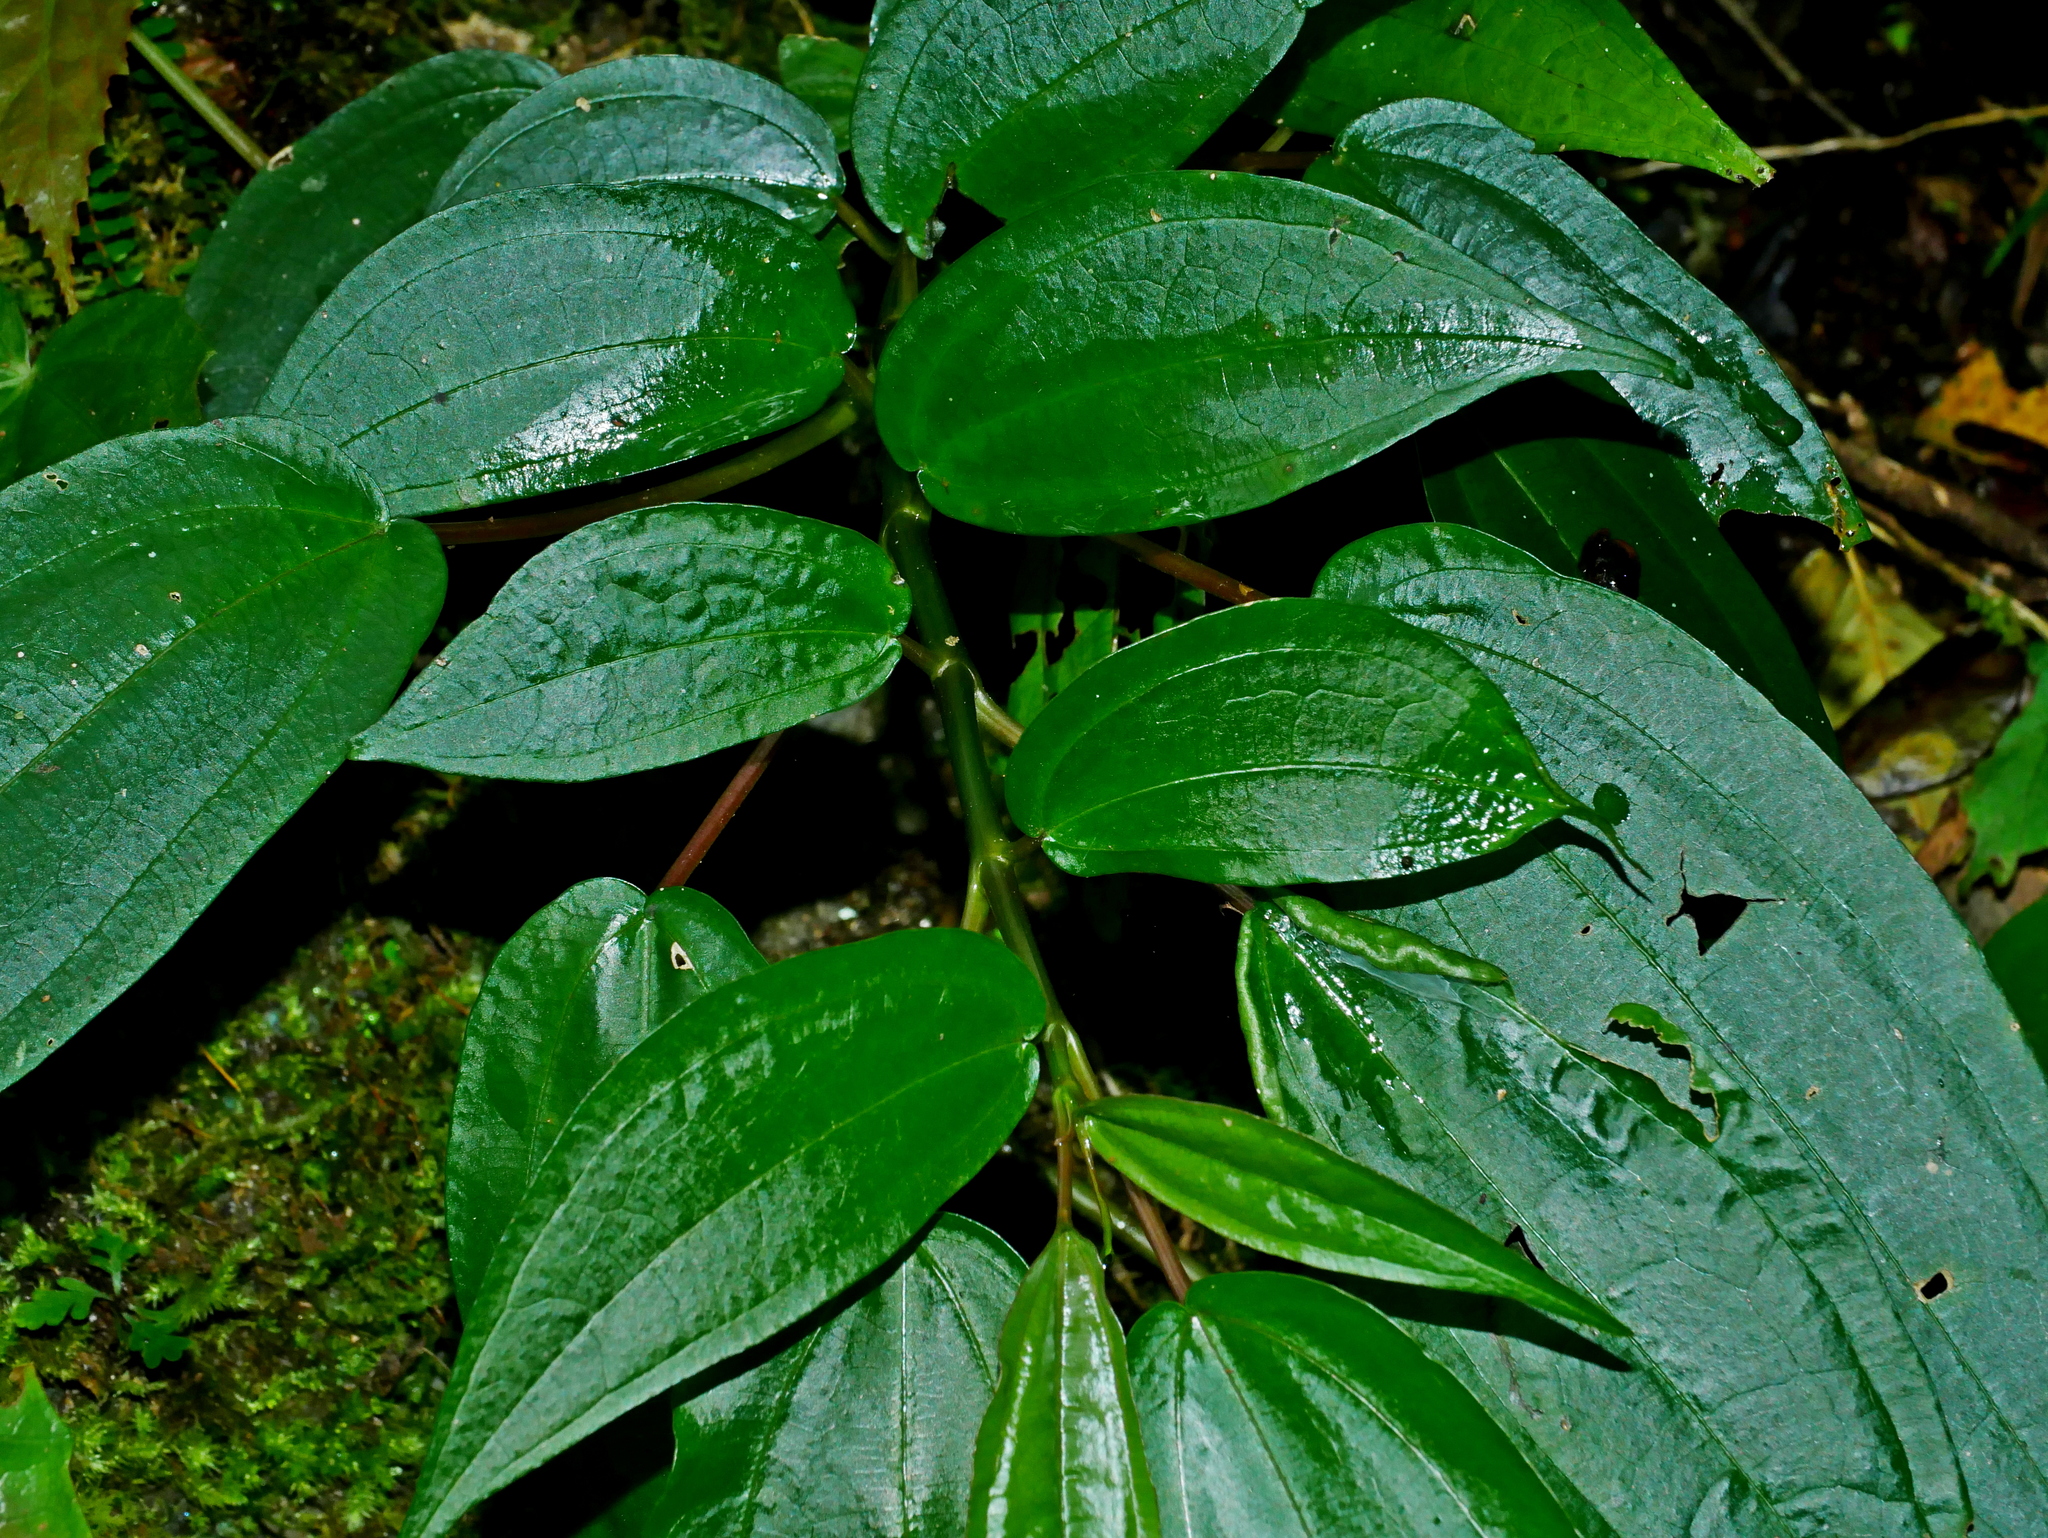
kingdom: Plantae
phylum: Tracheophyta
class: Magnoliopsida
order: Rosales
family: Urticaceae
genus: Pilea
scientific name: Pilea plataniflora
